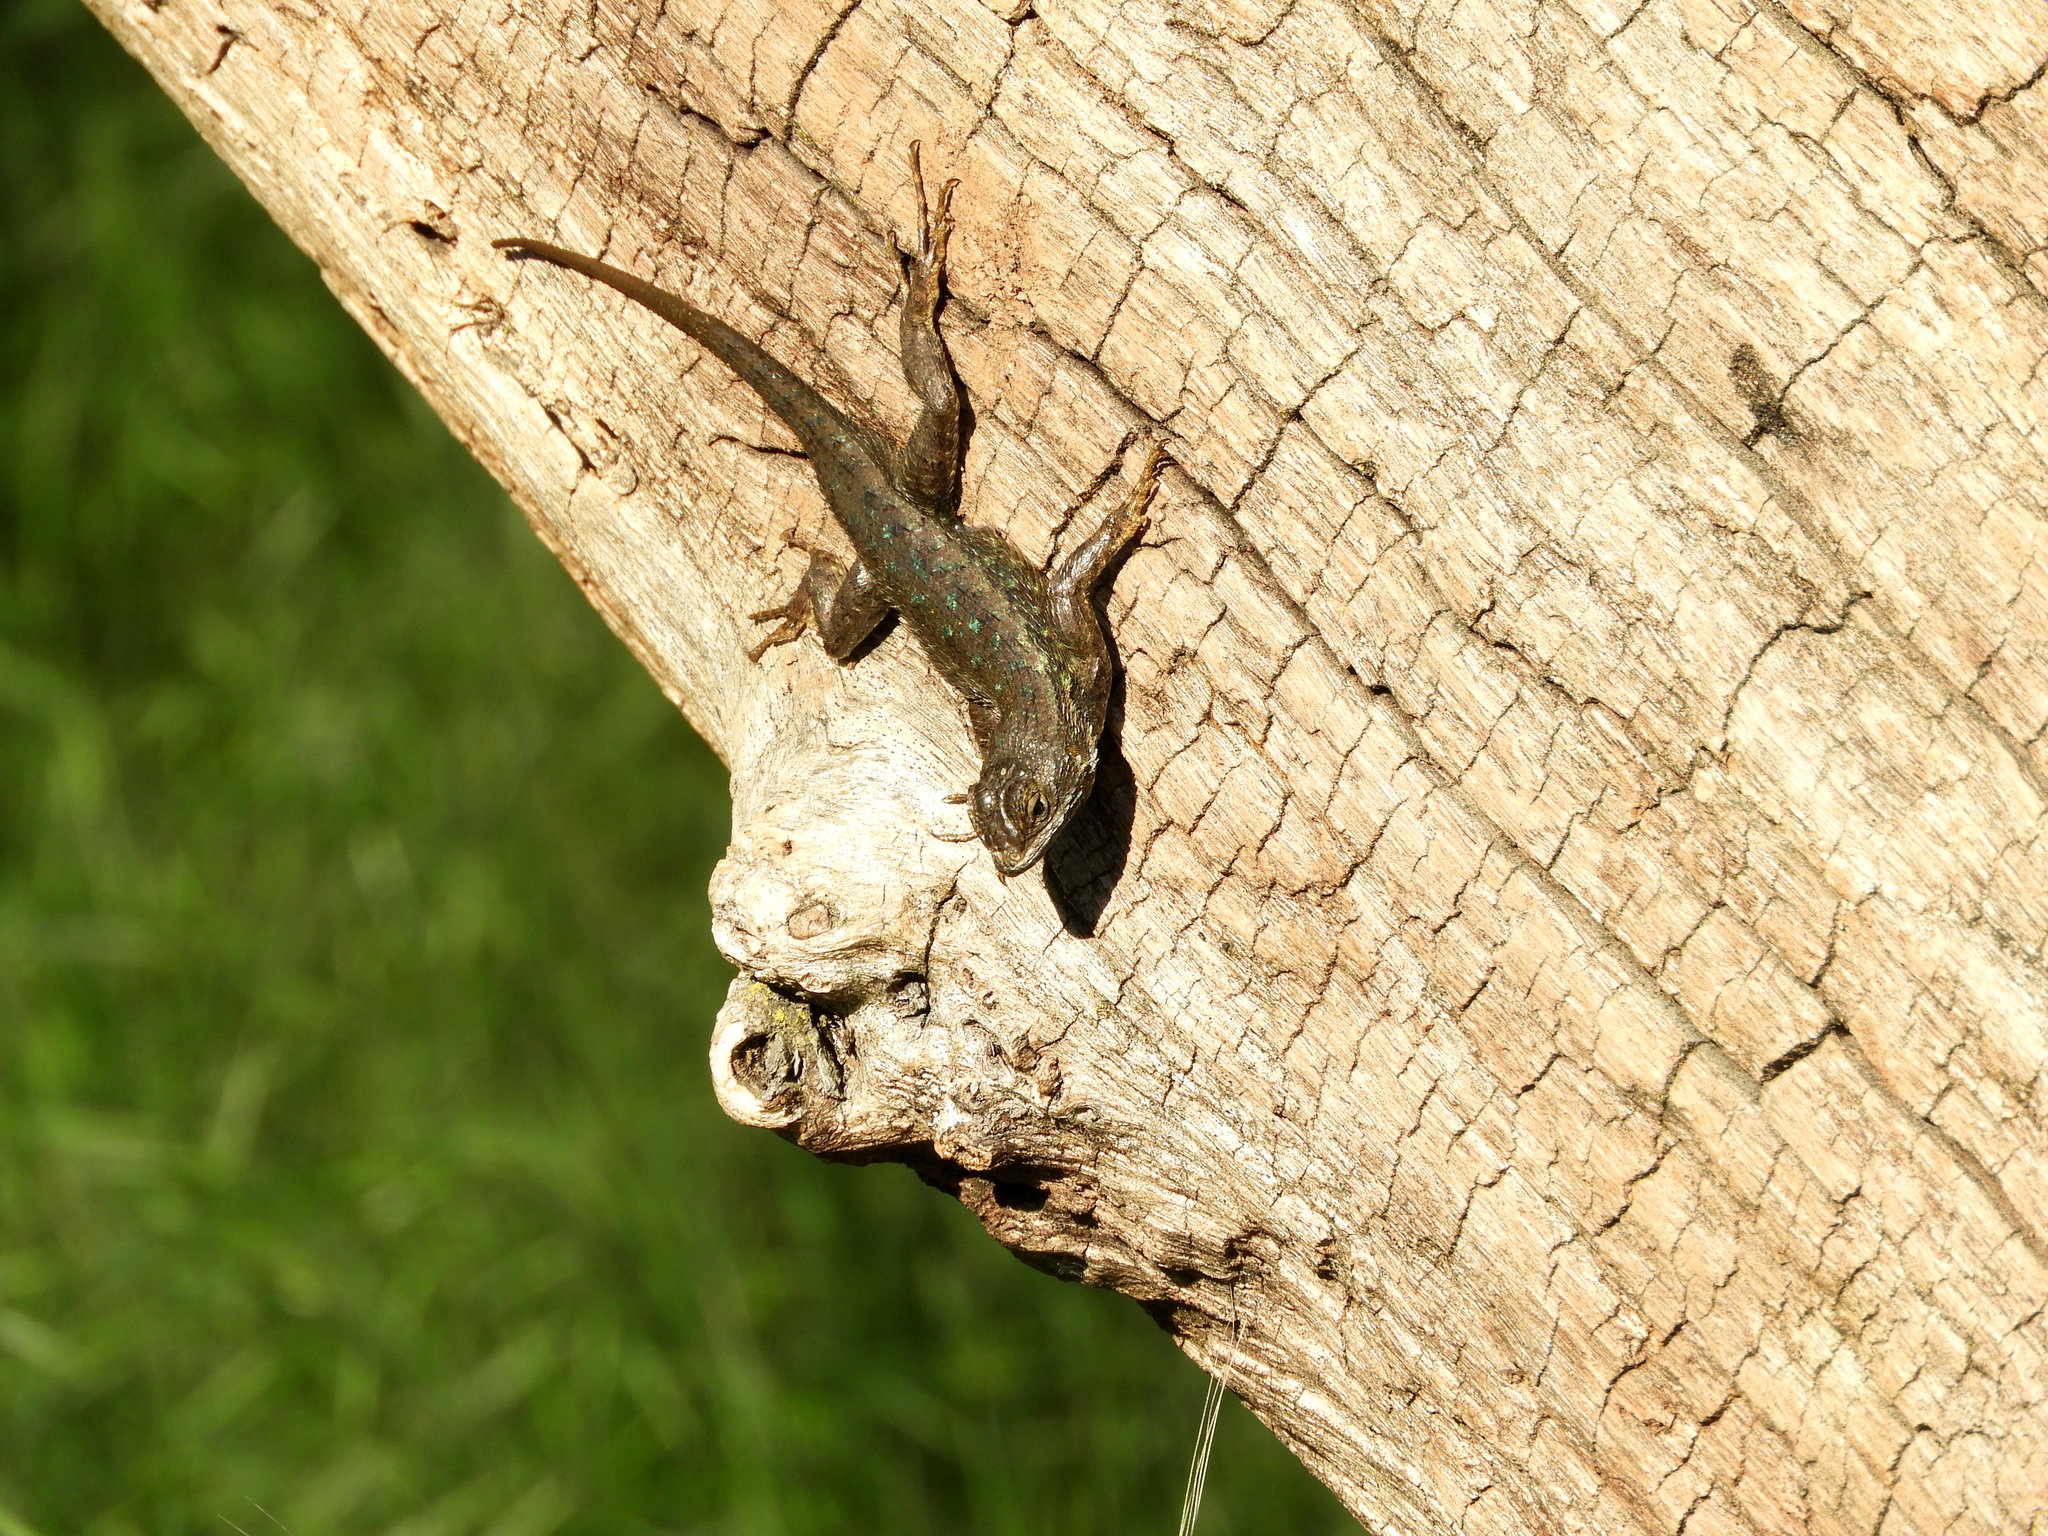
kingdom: Animalia
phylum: Chordata
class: Squamata
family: Phrynosomatidae
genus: Sceloporus
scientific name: Sceloporus occidentalis
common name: Western fence lizard
